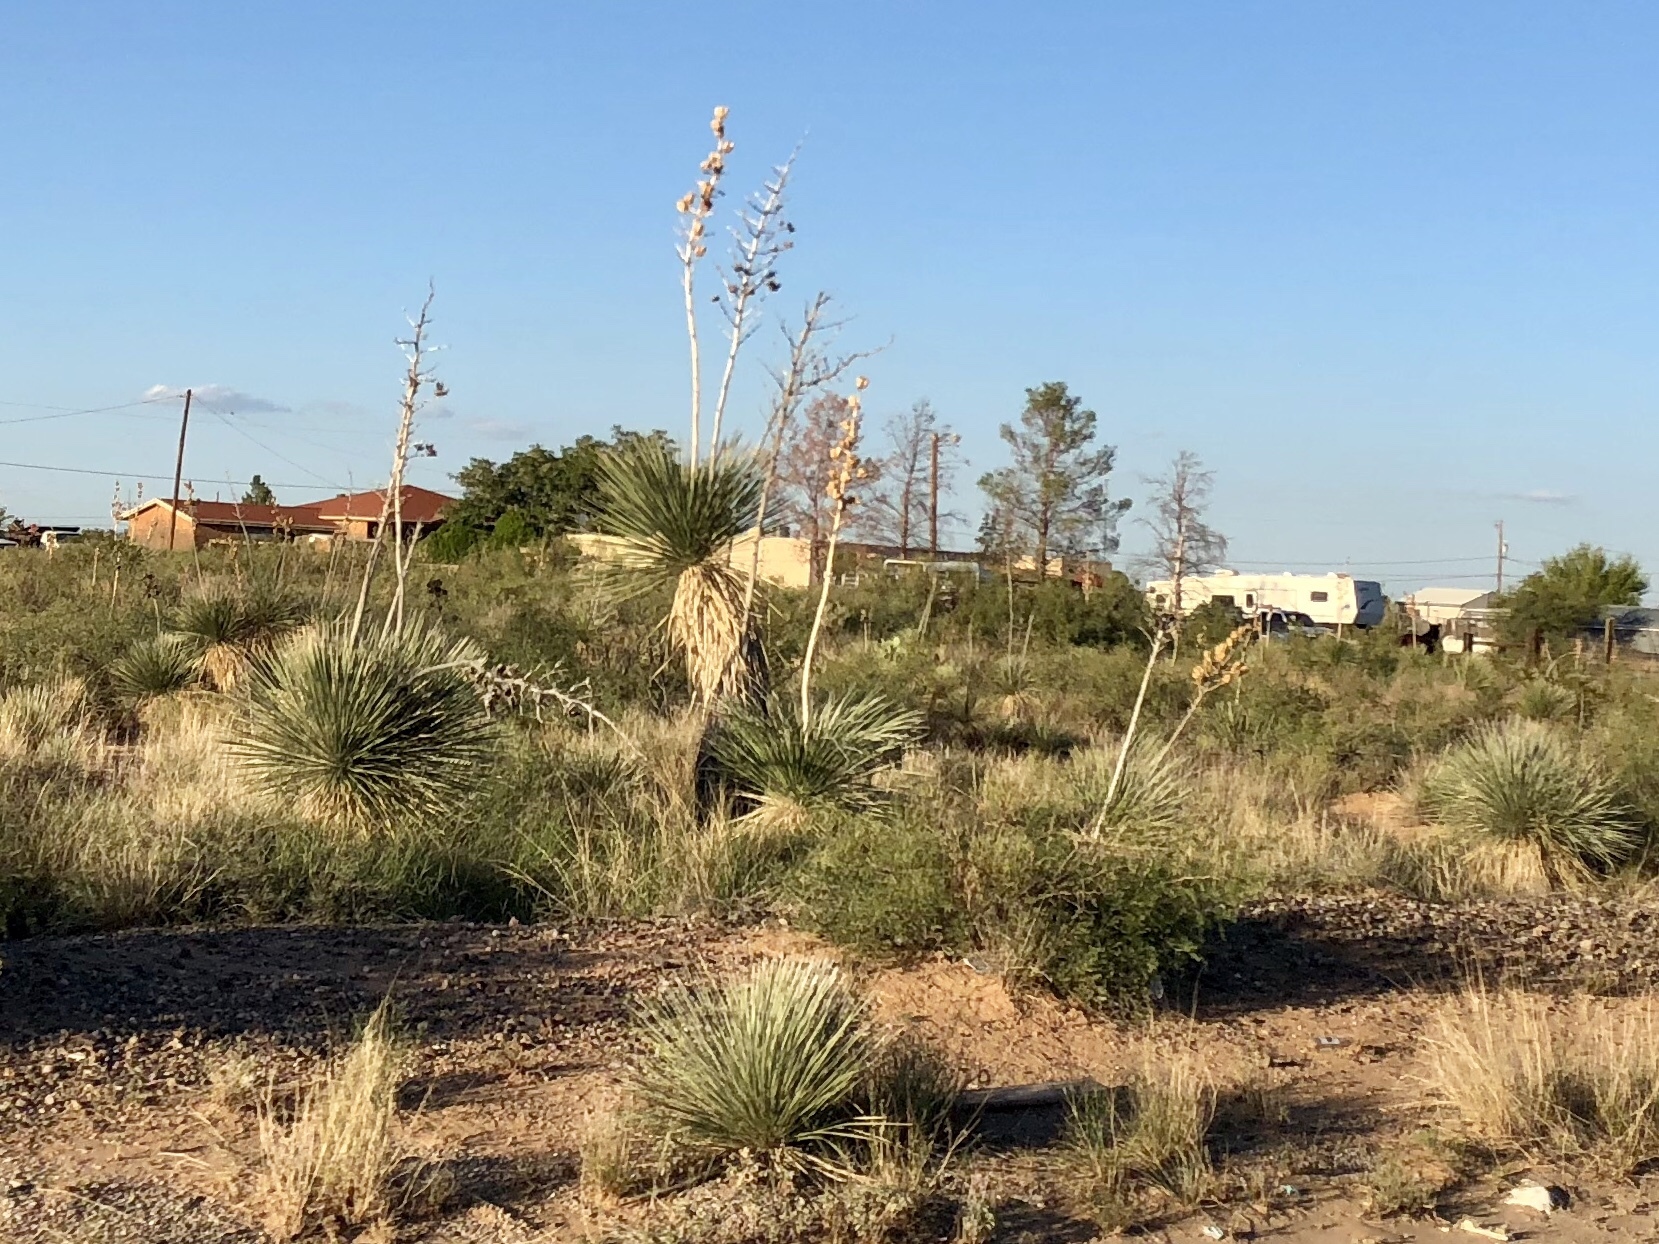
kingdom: Plantae
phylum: Tracheophyta
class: Liliopsida
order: Asparagales
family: Asparagaceae
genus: Yucca
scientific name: Yucca elata
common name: Palmella
